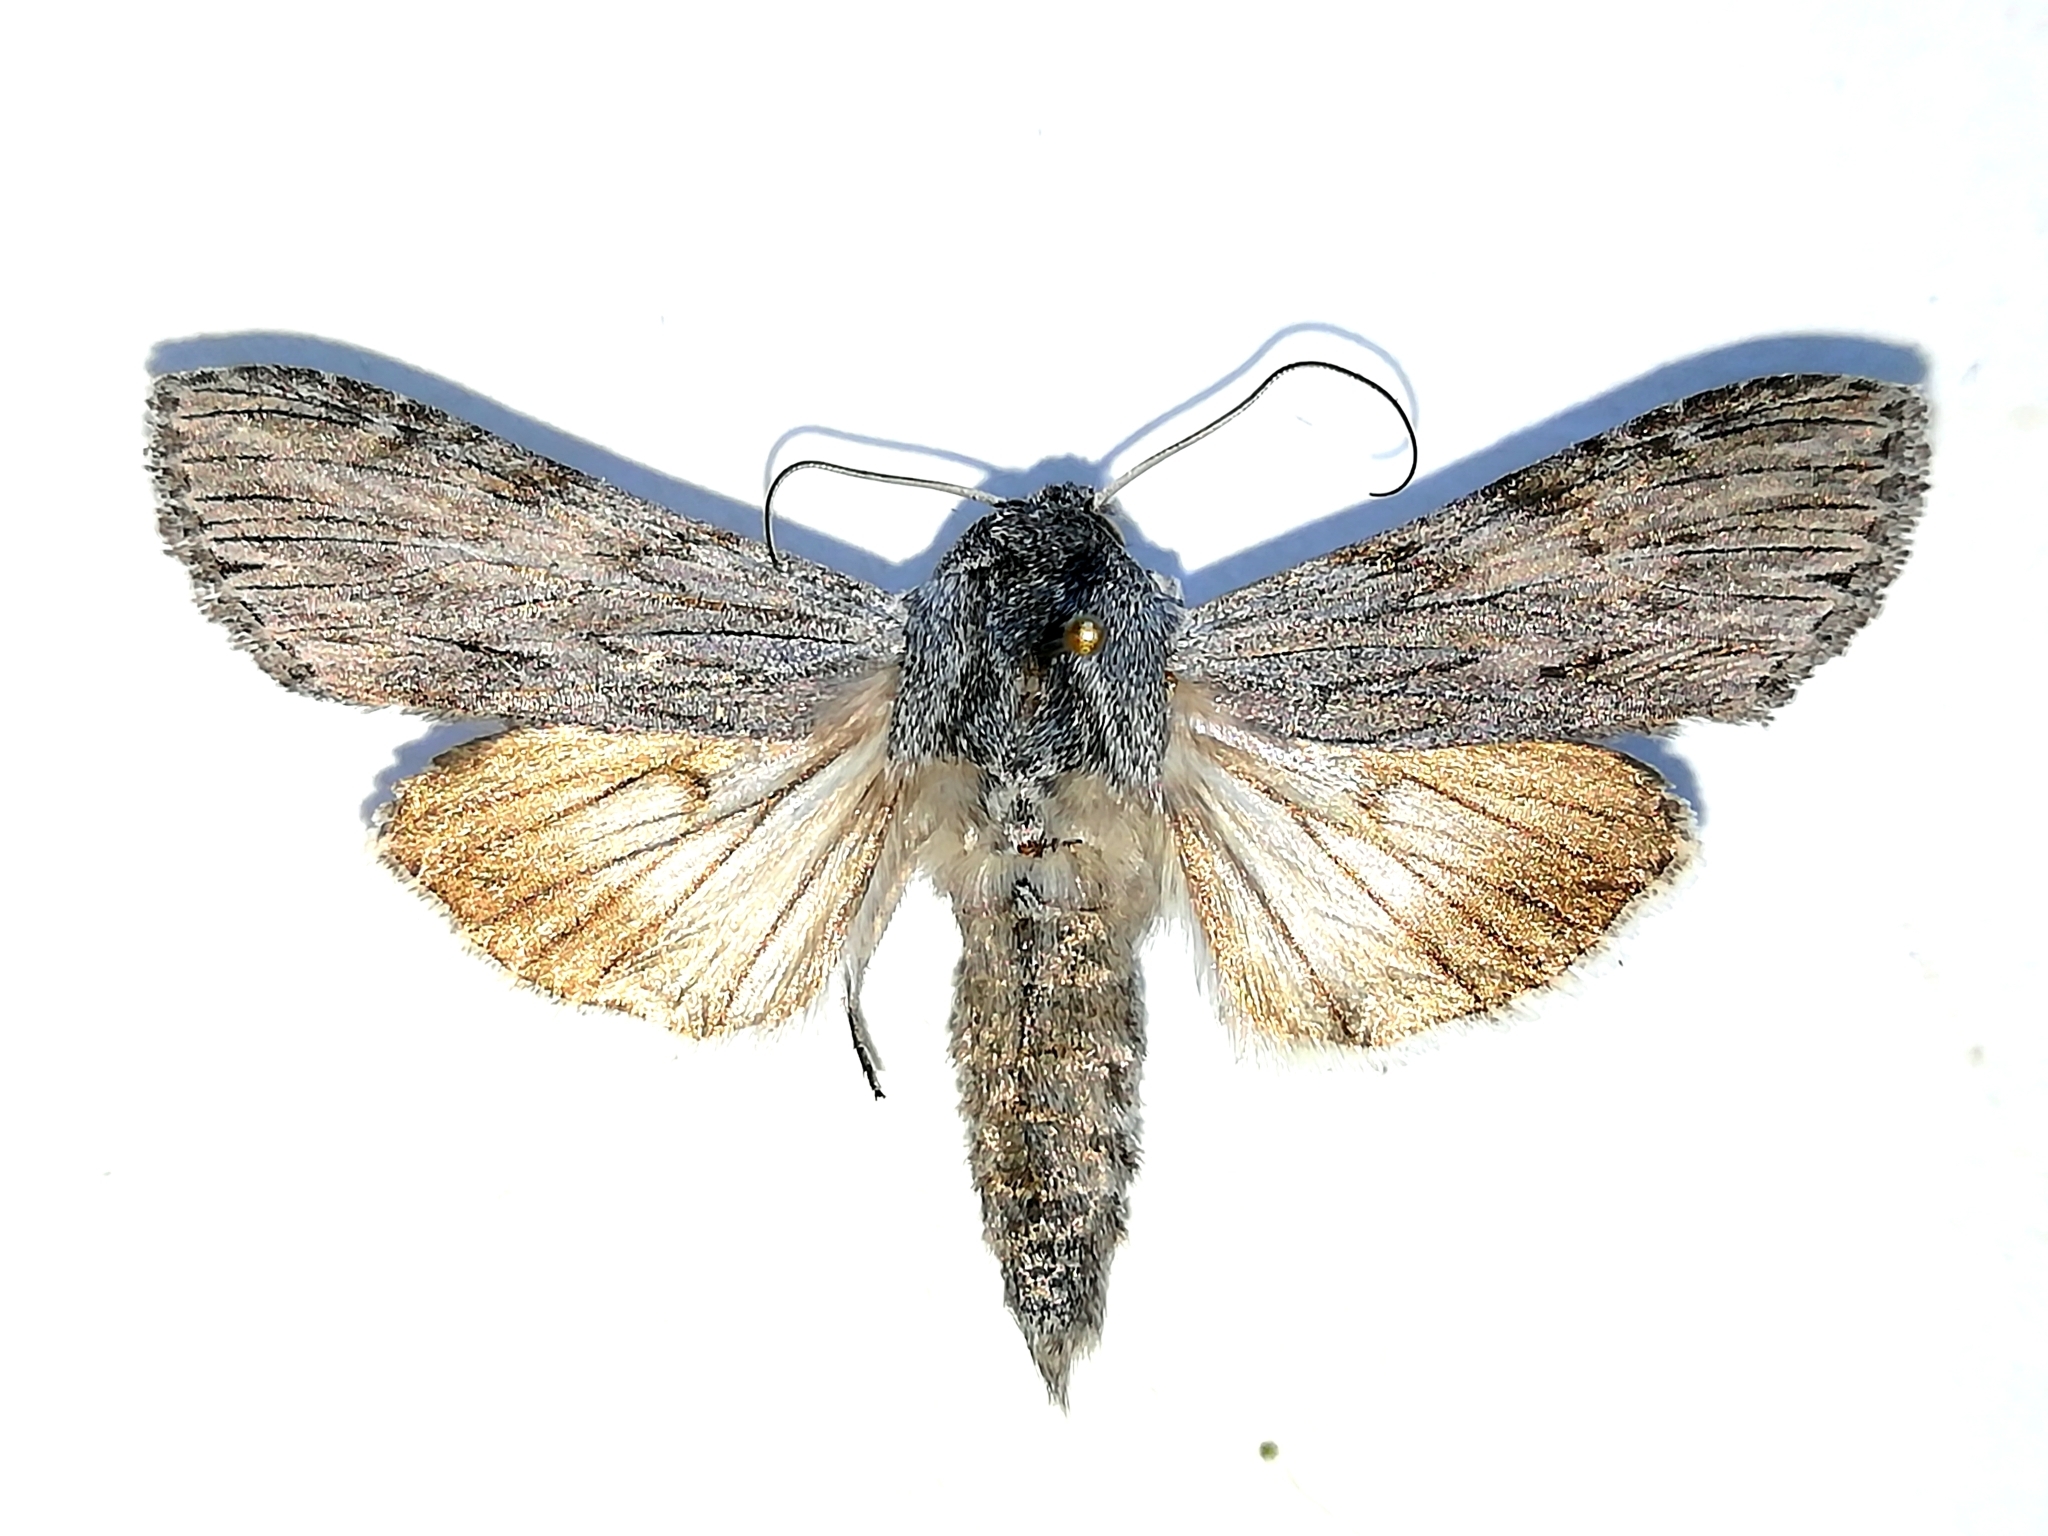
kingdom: Animalia
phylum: Arthropoda
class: Insecta
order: Lepidoptera
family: Noctuidae
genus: Cucullia
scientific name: Cucullia lactucae
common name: Lettuce shark
